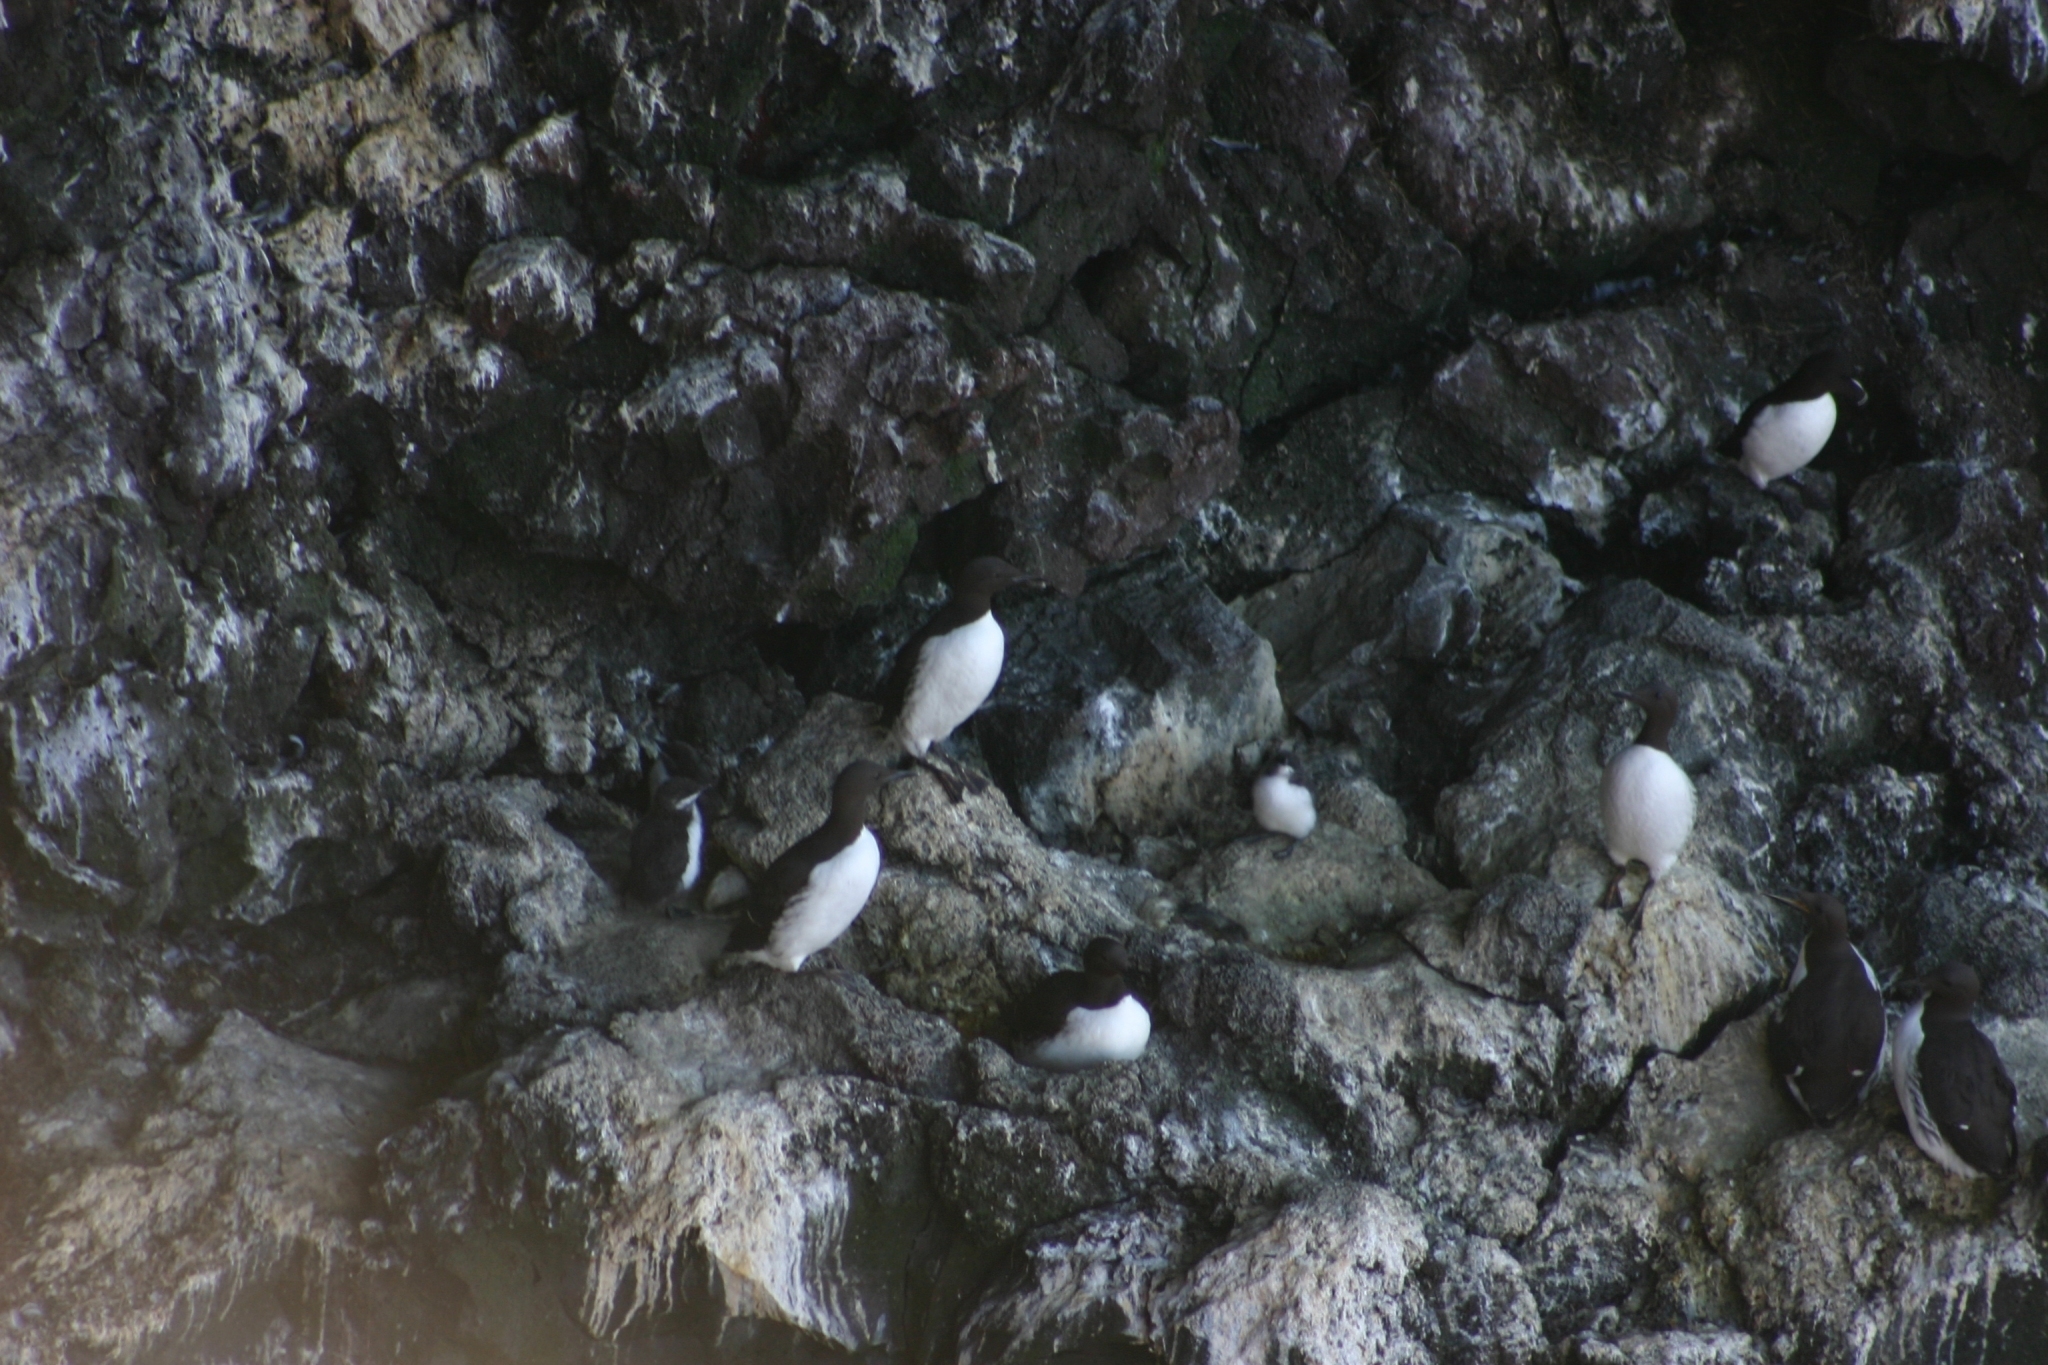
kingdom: Animalia
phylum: Chordata
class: Aves
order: Charadriiformes
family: Alcidae
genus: Uria
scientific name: Uria aalge
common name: Common murre
